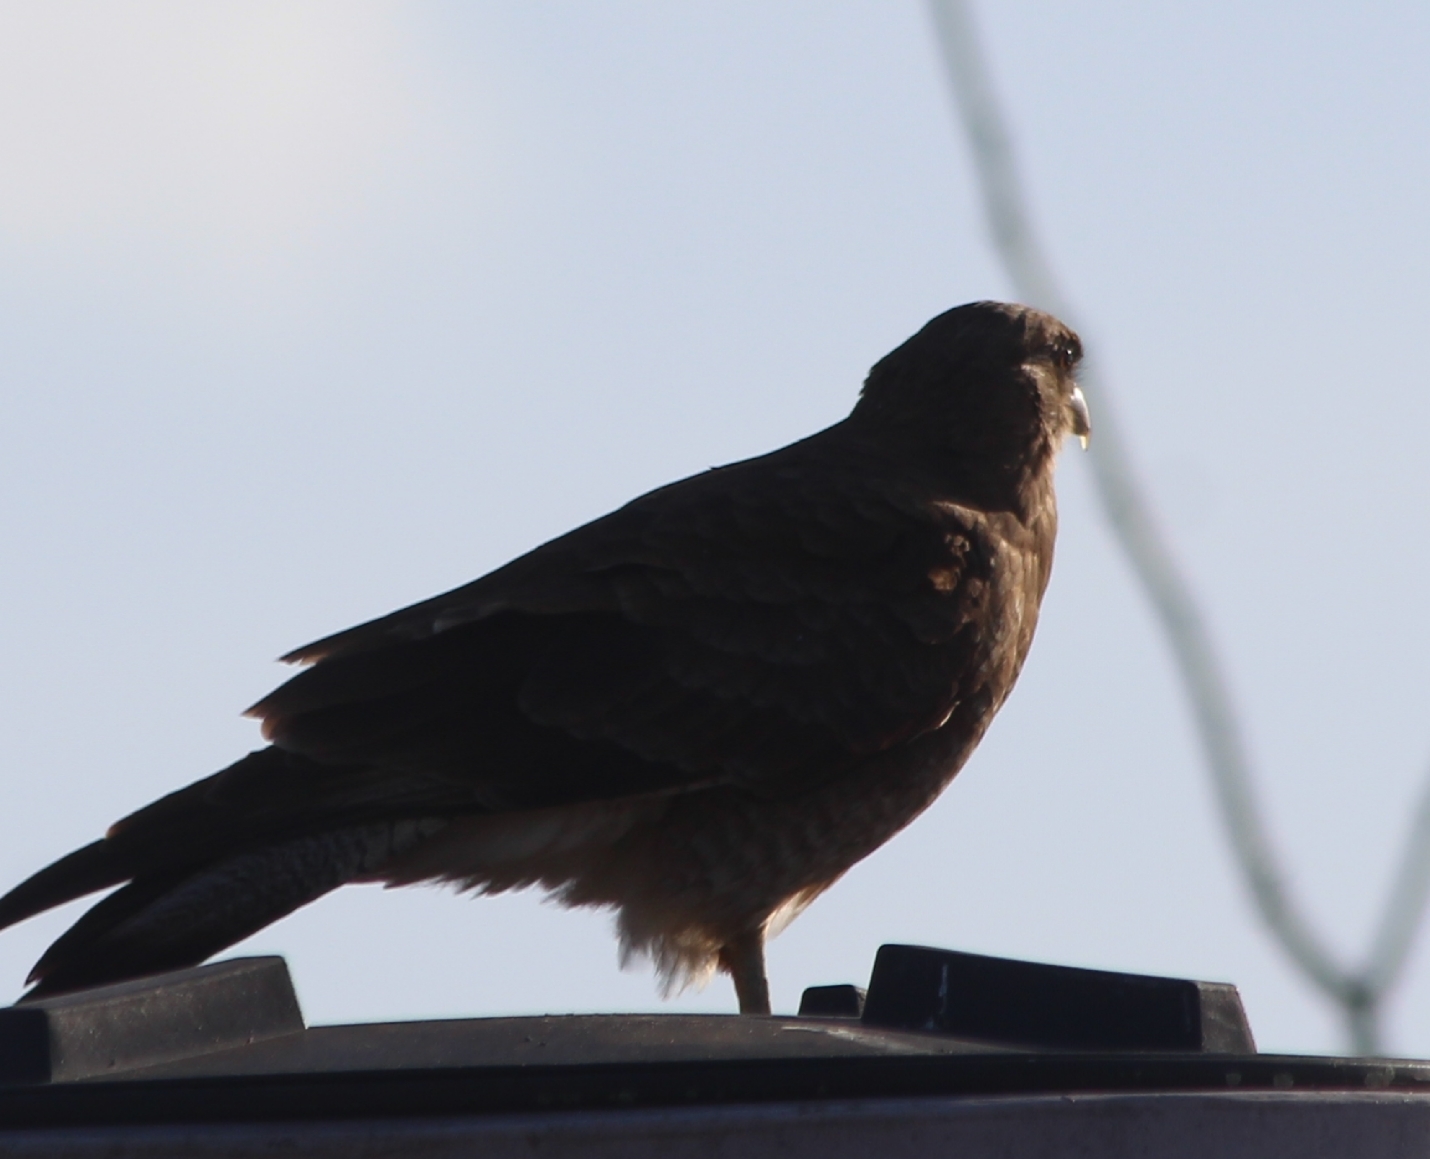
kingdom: Animalia
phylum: Chordata
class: Aves
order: Falconiformes
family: Falconidae
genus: Daptrius
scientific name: Daptrius
